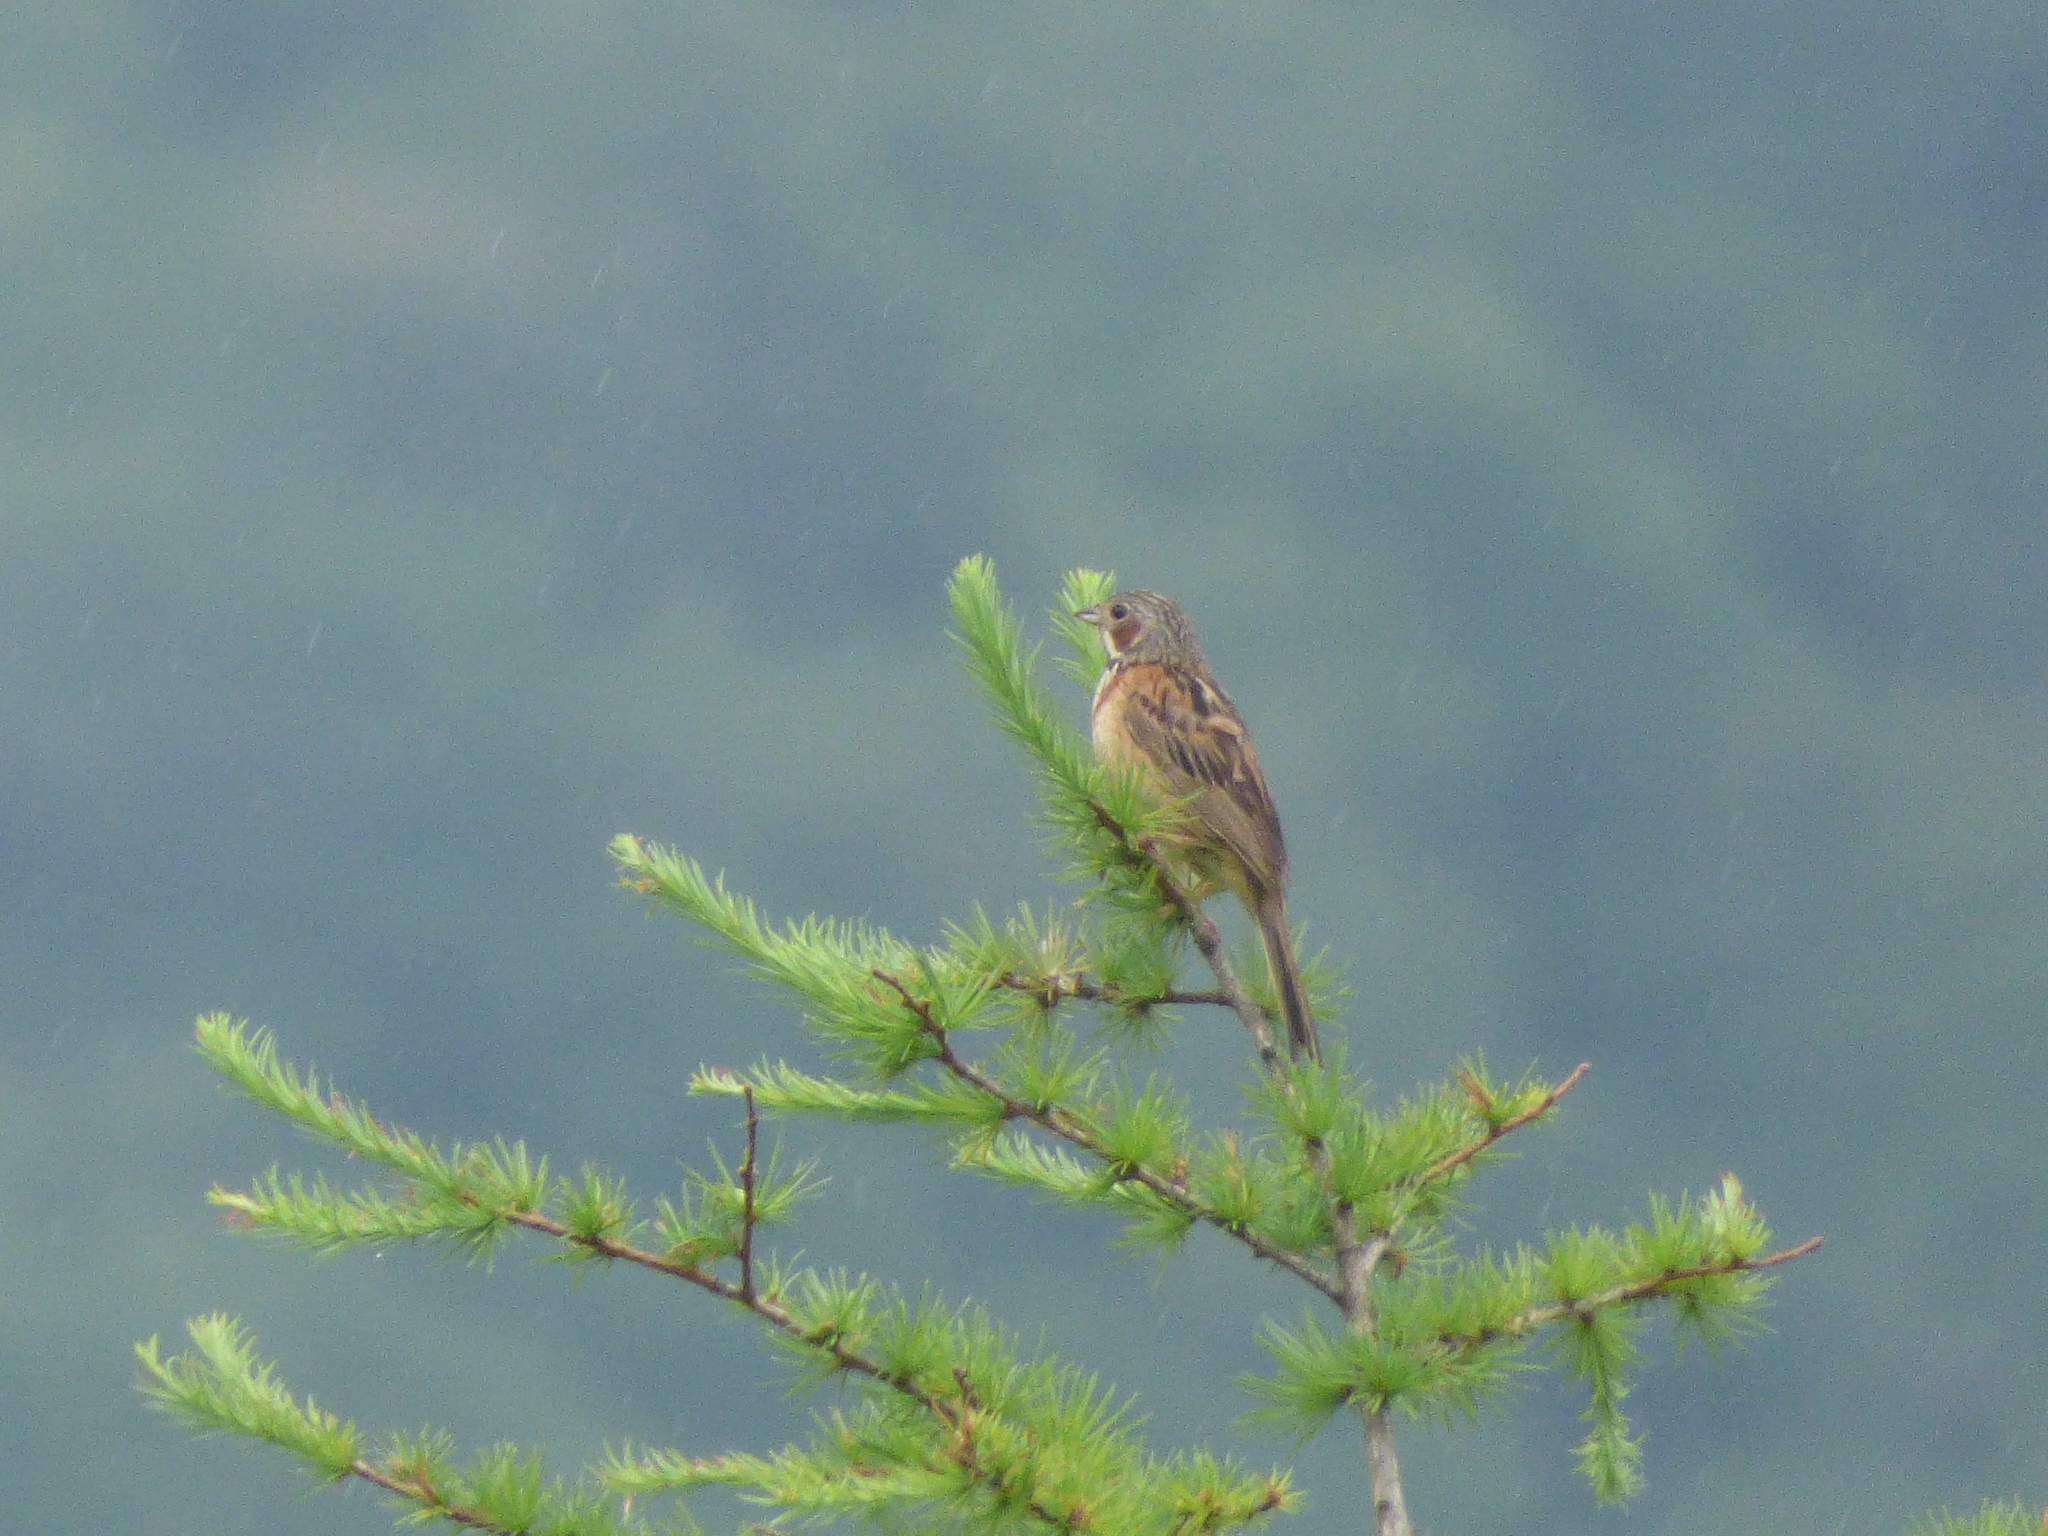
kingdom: Animalia
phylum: Chordata
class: Aves
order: Passeriformes
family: Emberizidae
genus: Emberiza
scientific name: Emberiza fucata
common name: Chestnut-eared bunting
